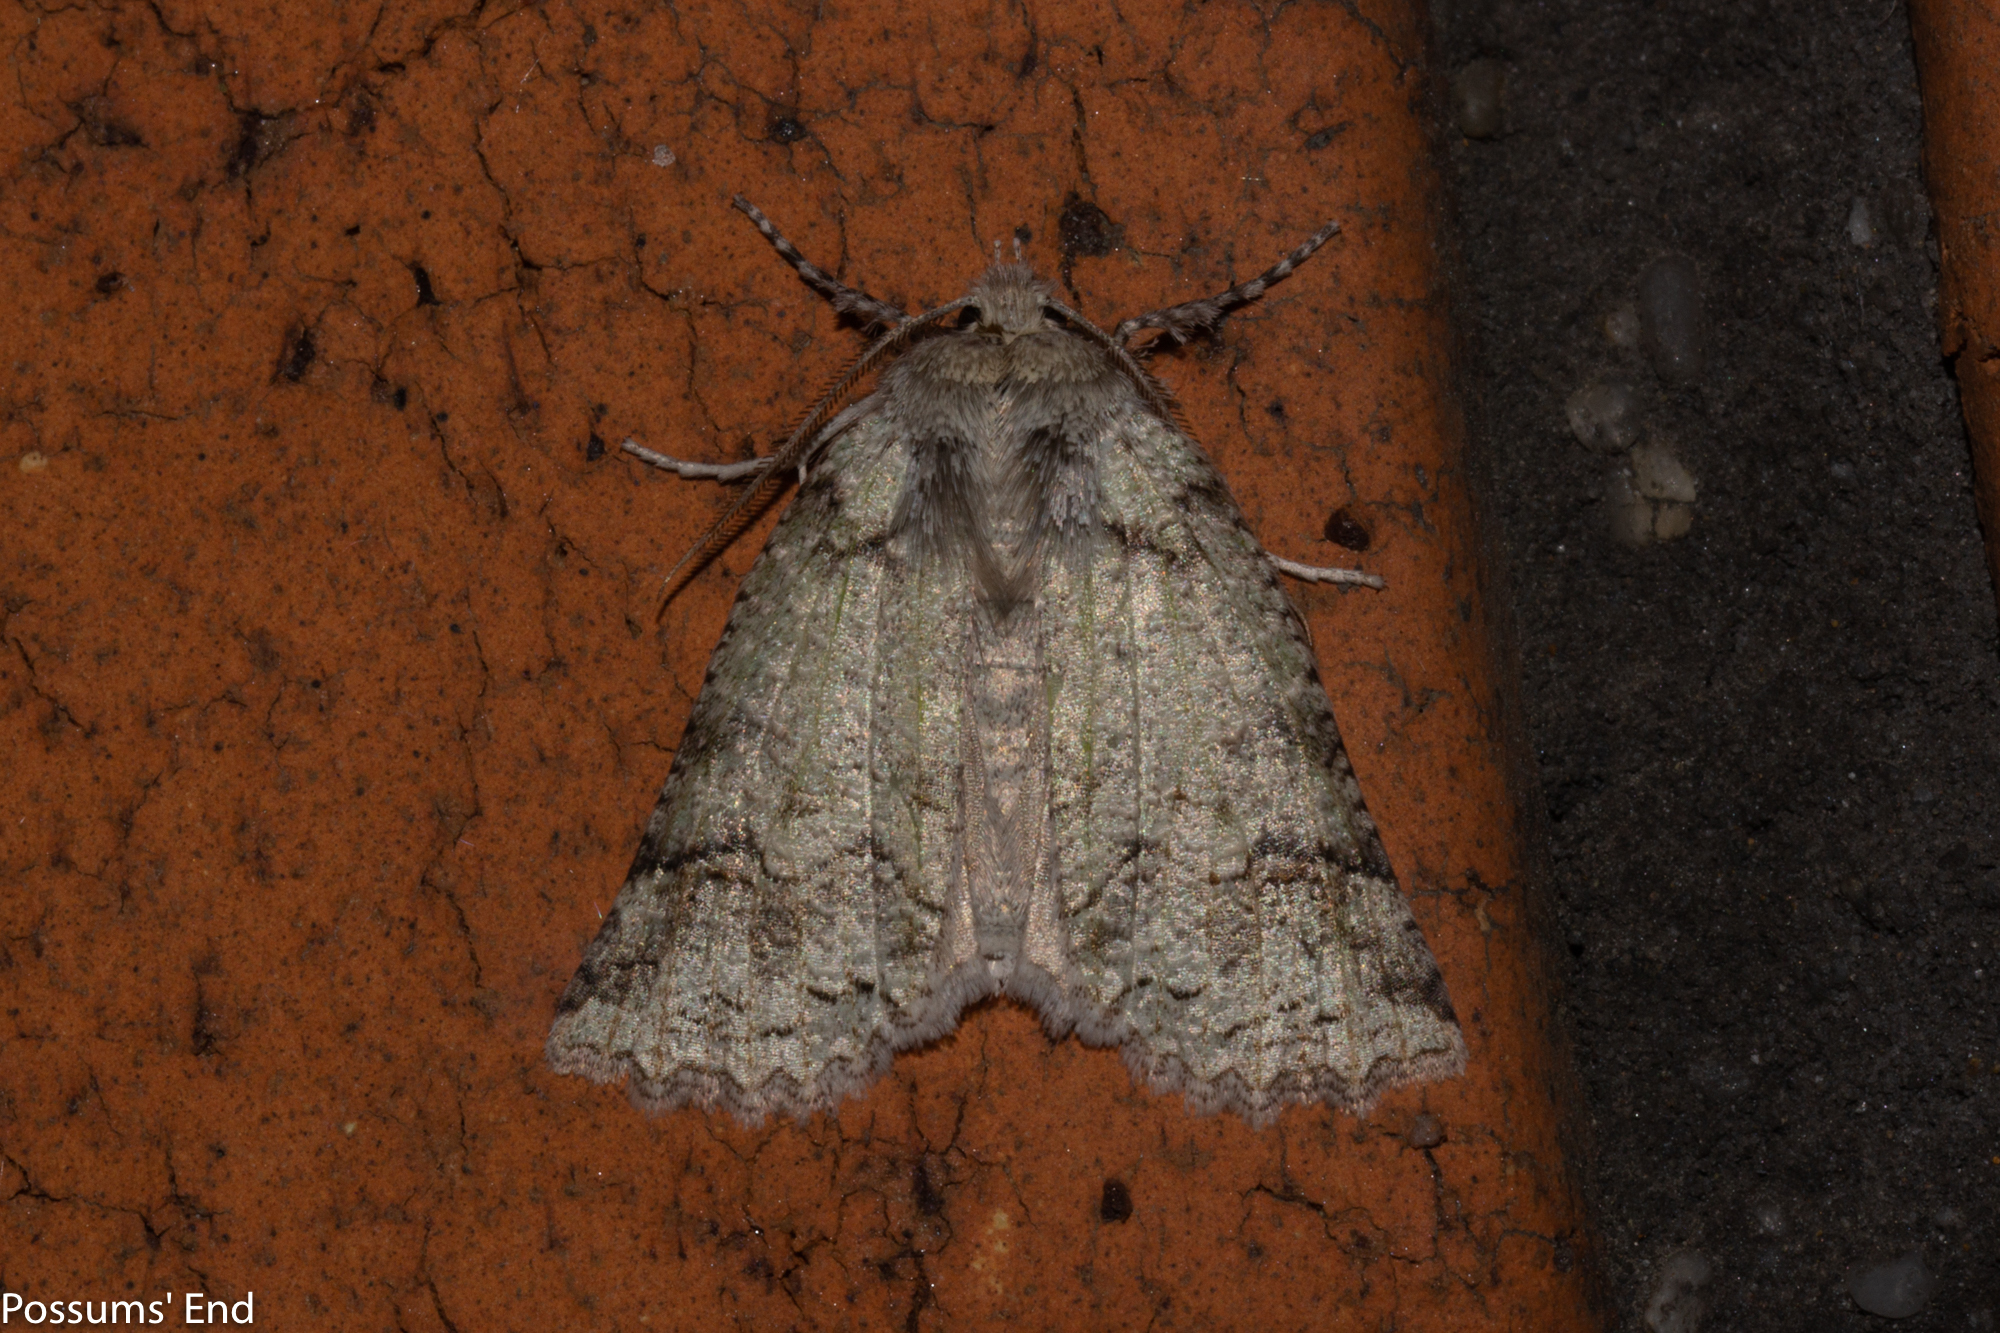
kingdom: Animalia
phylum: Arthropoda
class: Insecta
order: Lepidoptera
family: Geometridae
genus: Declana
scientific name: Declana floccosa
